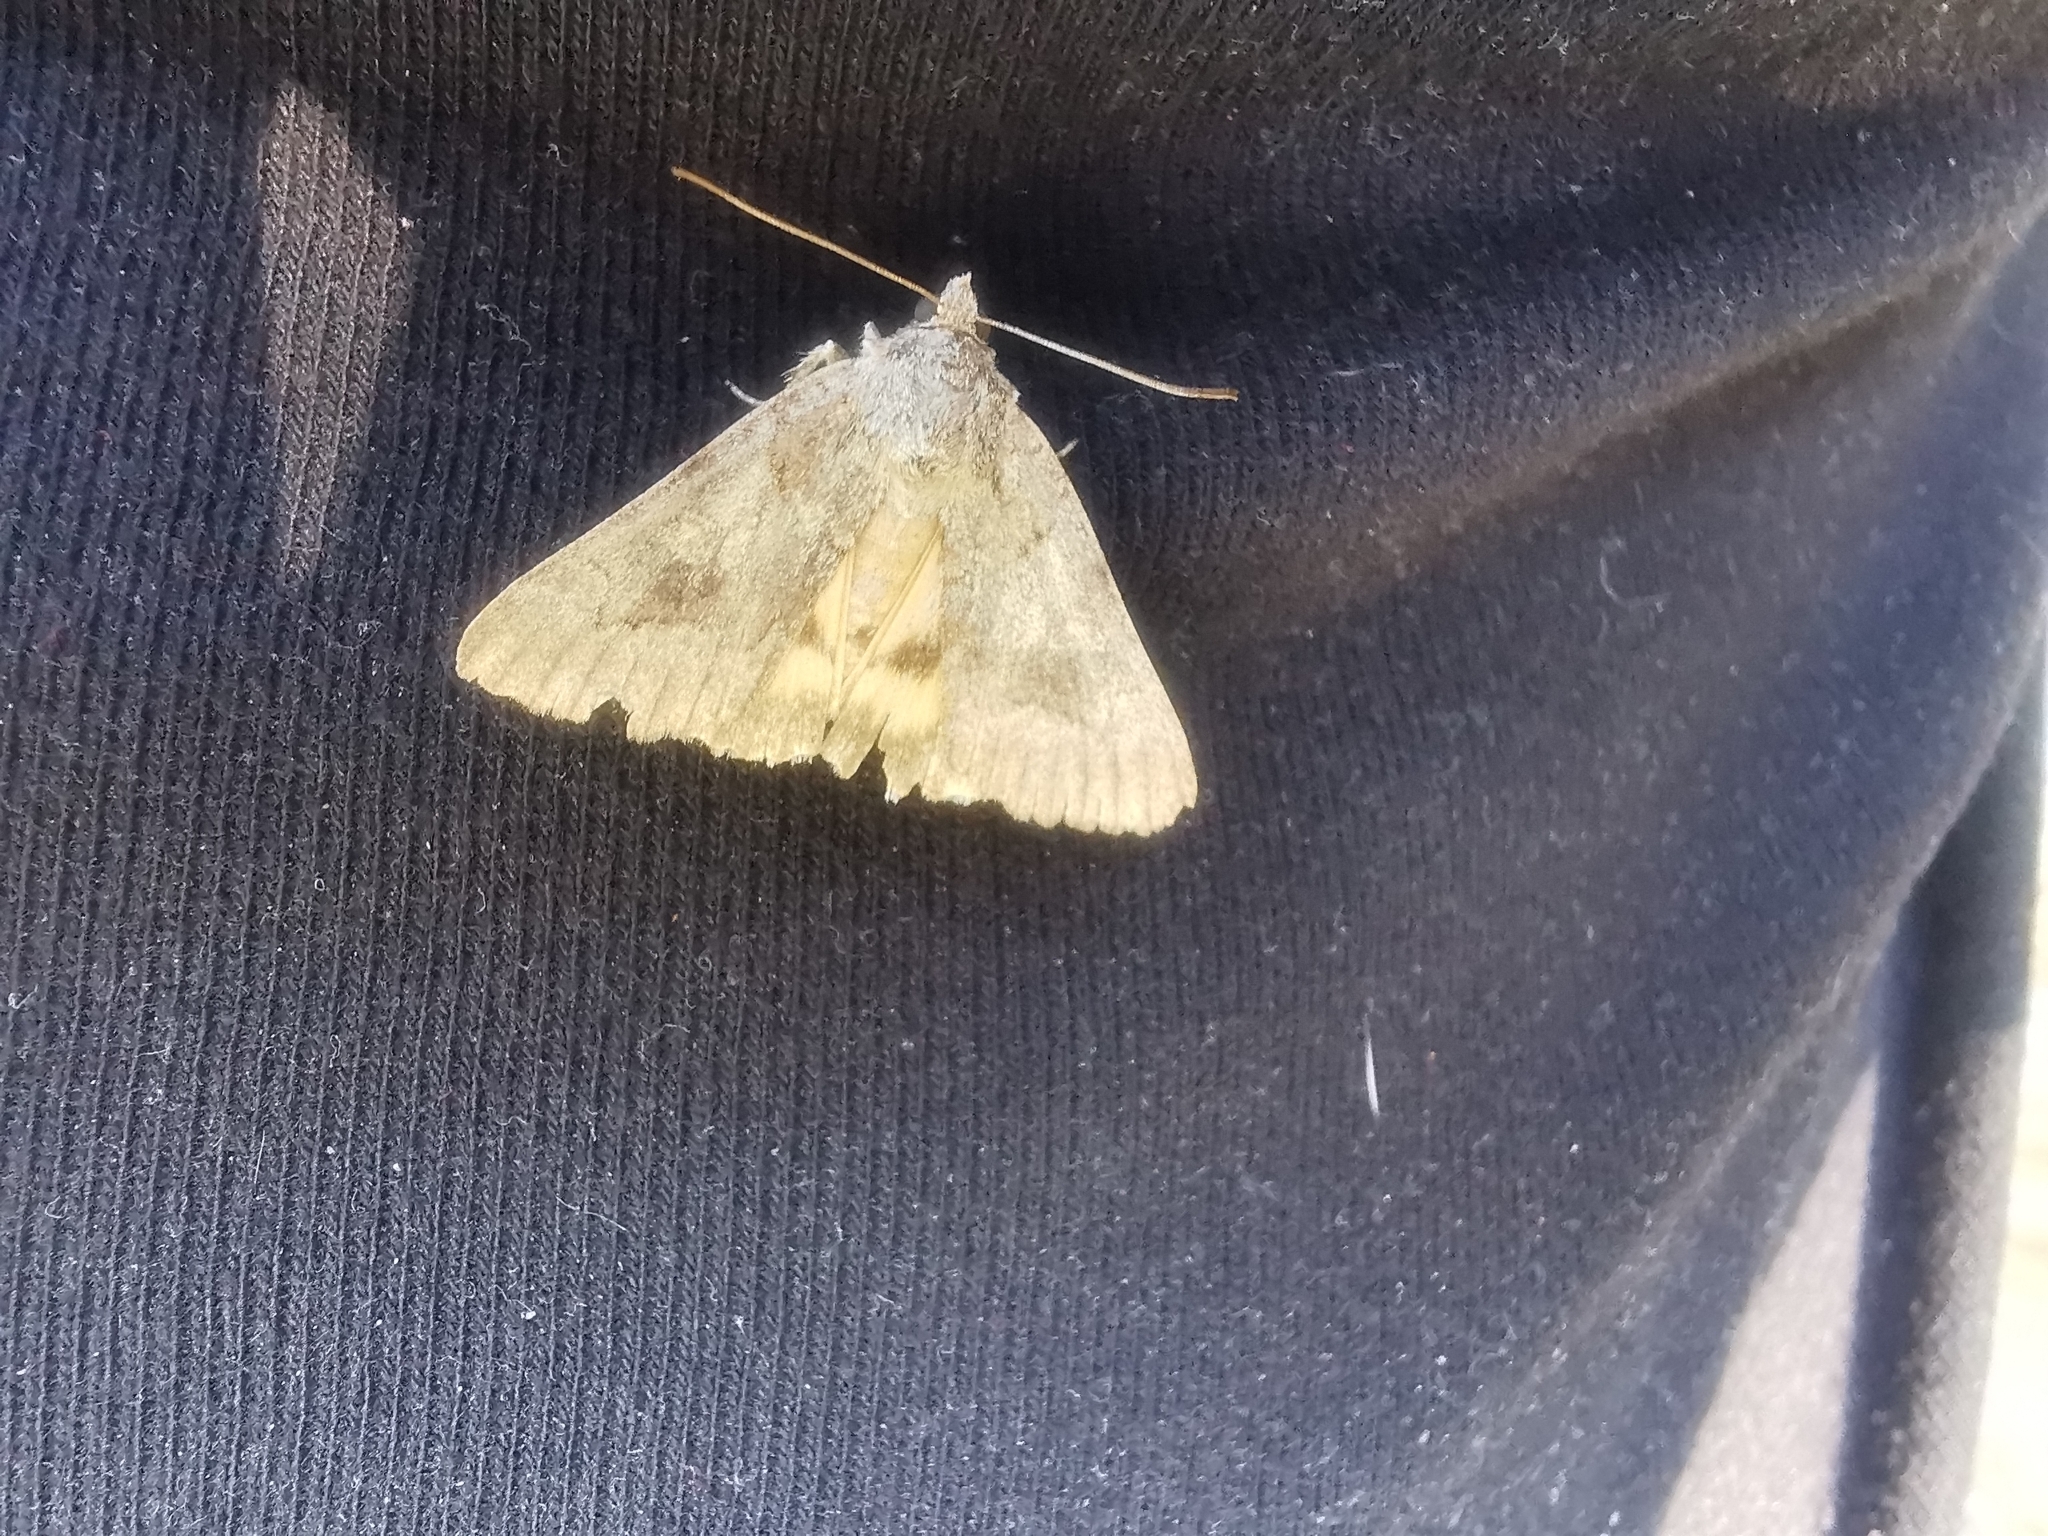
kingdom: Animalia
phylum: Arthropoda
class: Insecta
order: Lepidoptera
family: Erebidae
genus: Catocala
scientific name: Catocala eutychea
